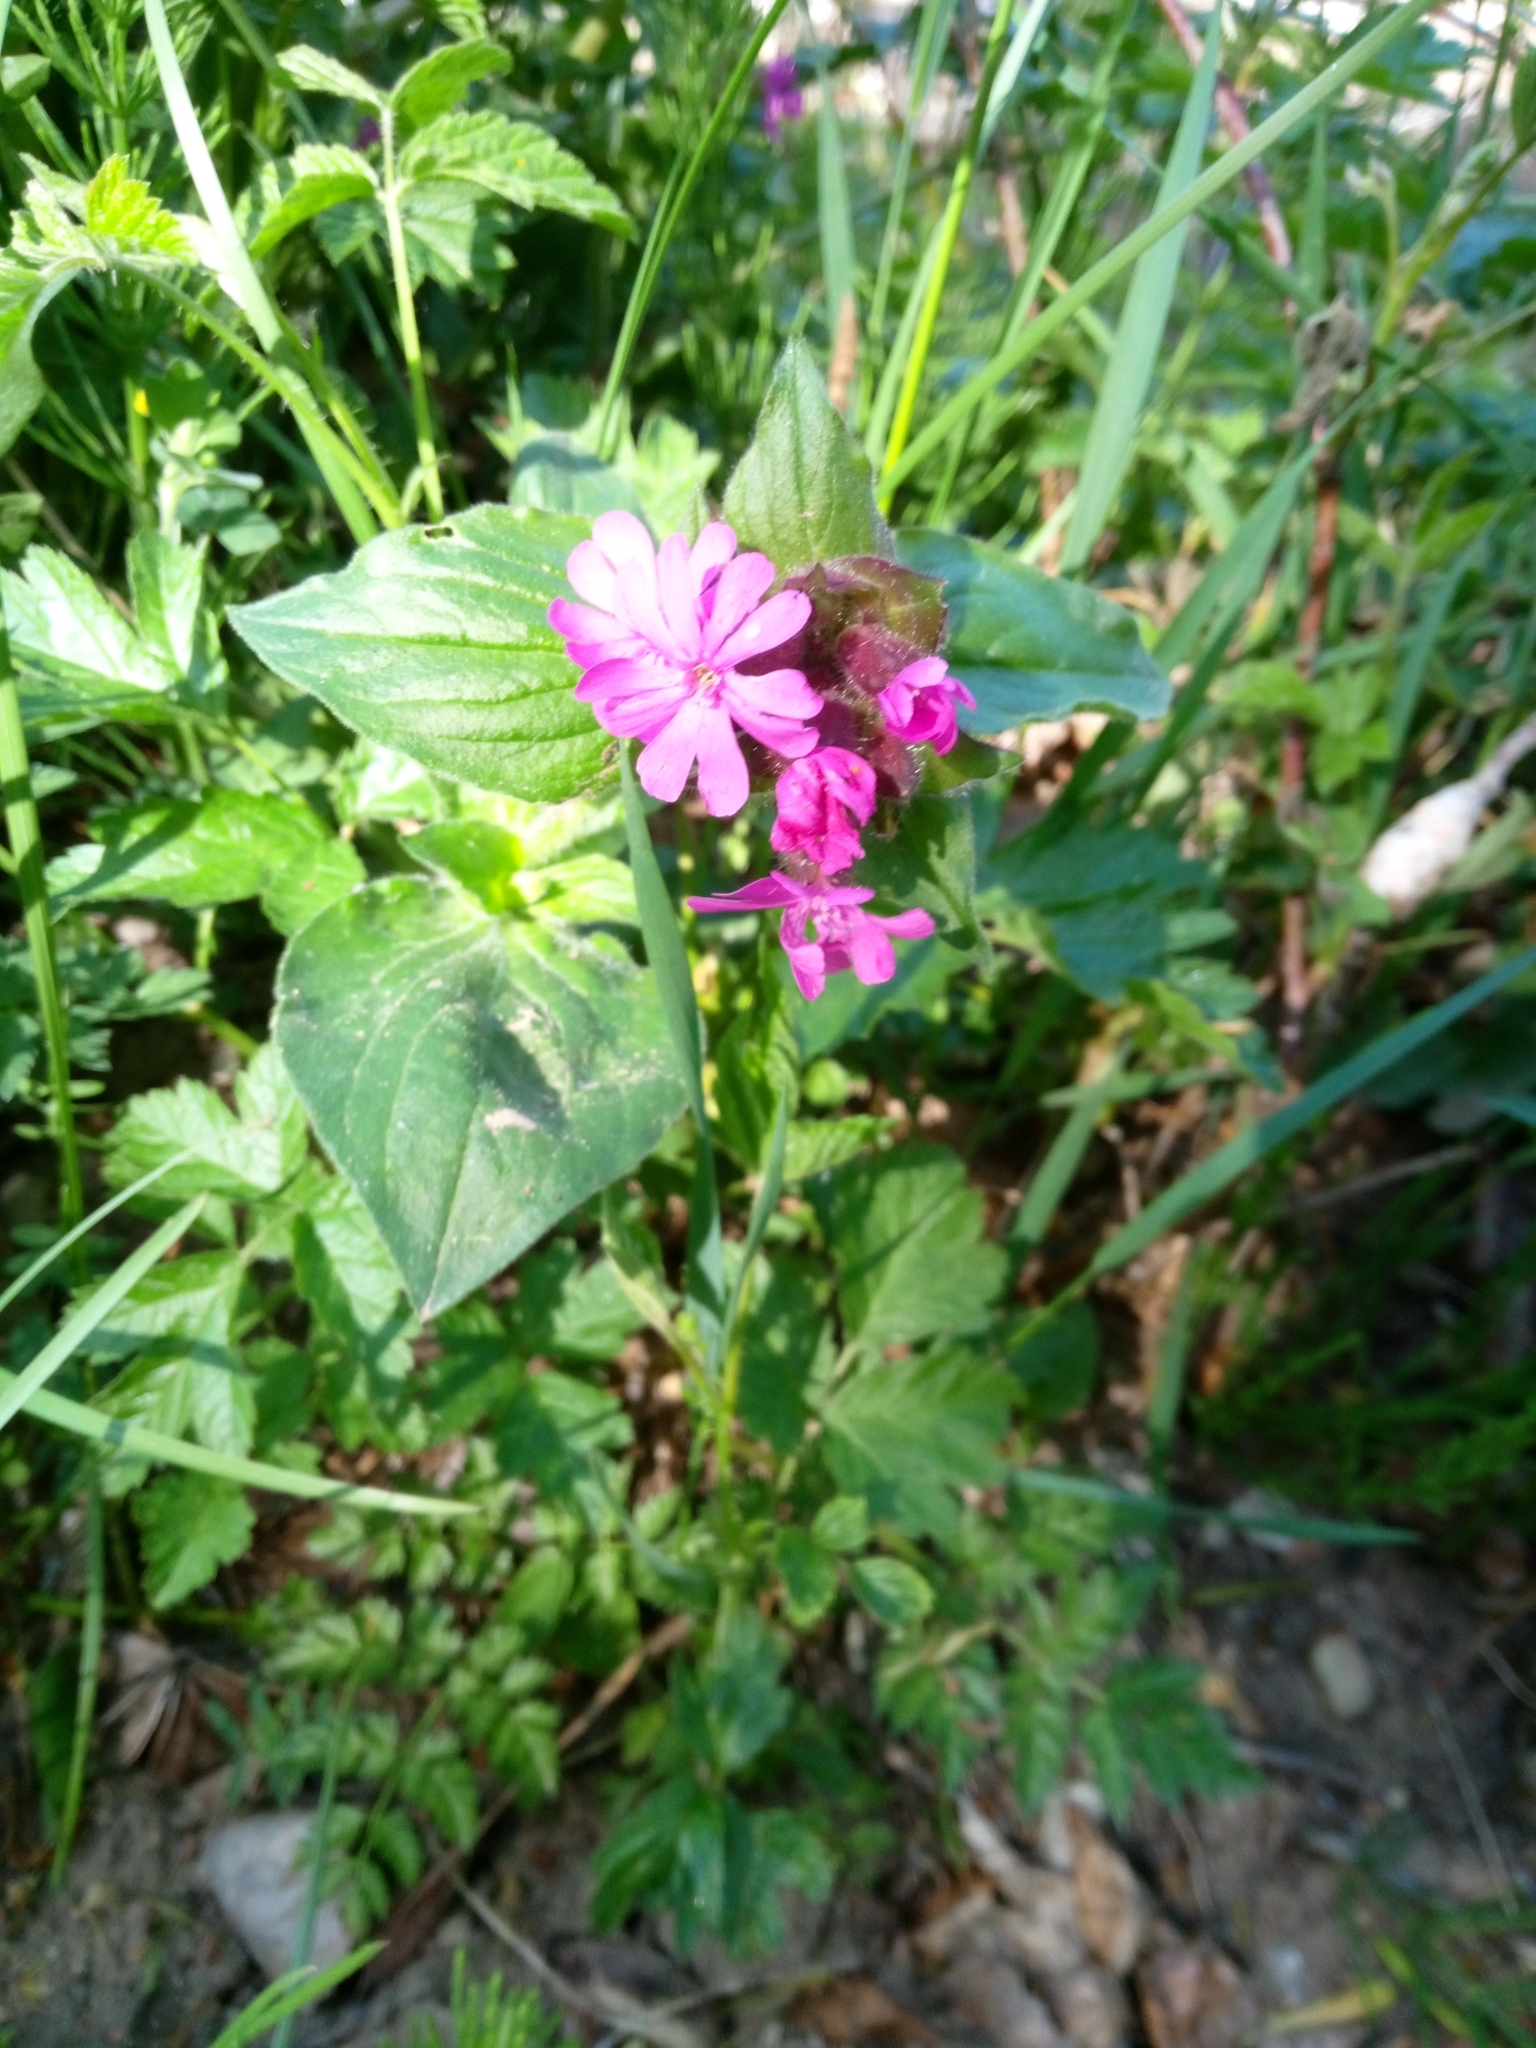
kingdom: Plantae
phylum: Tracheophyta
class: Magnoliopsida
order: Caryophyllales
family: Caryophyllaceae
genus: Silene
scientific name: Silene dioica
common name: Red campion
